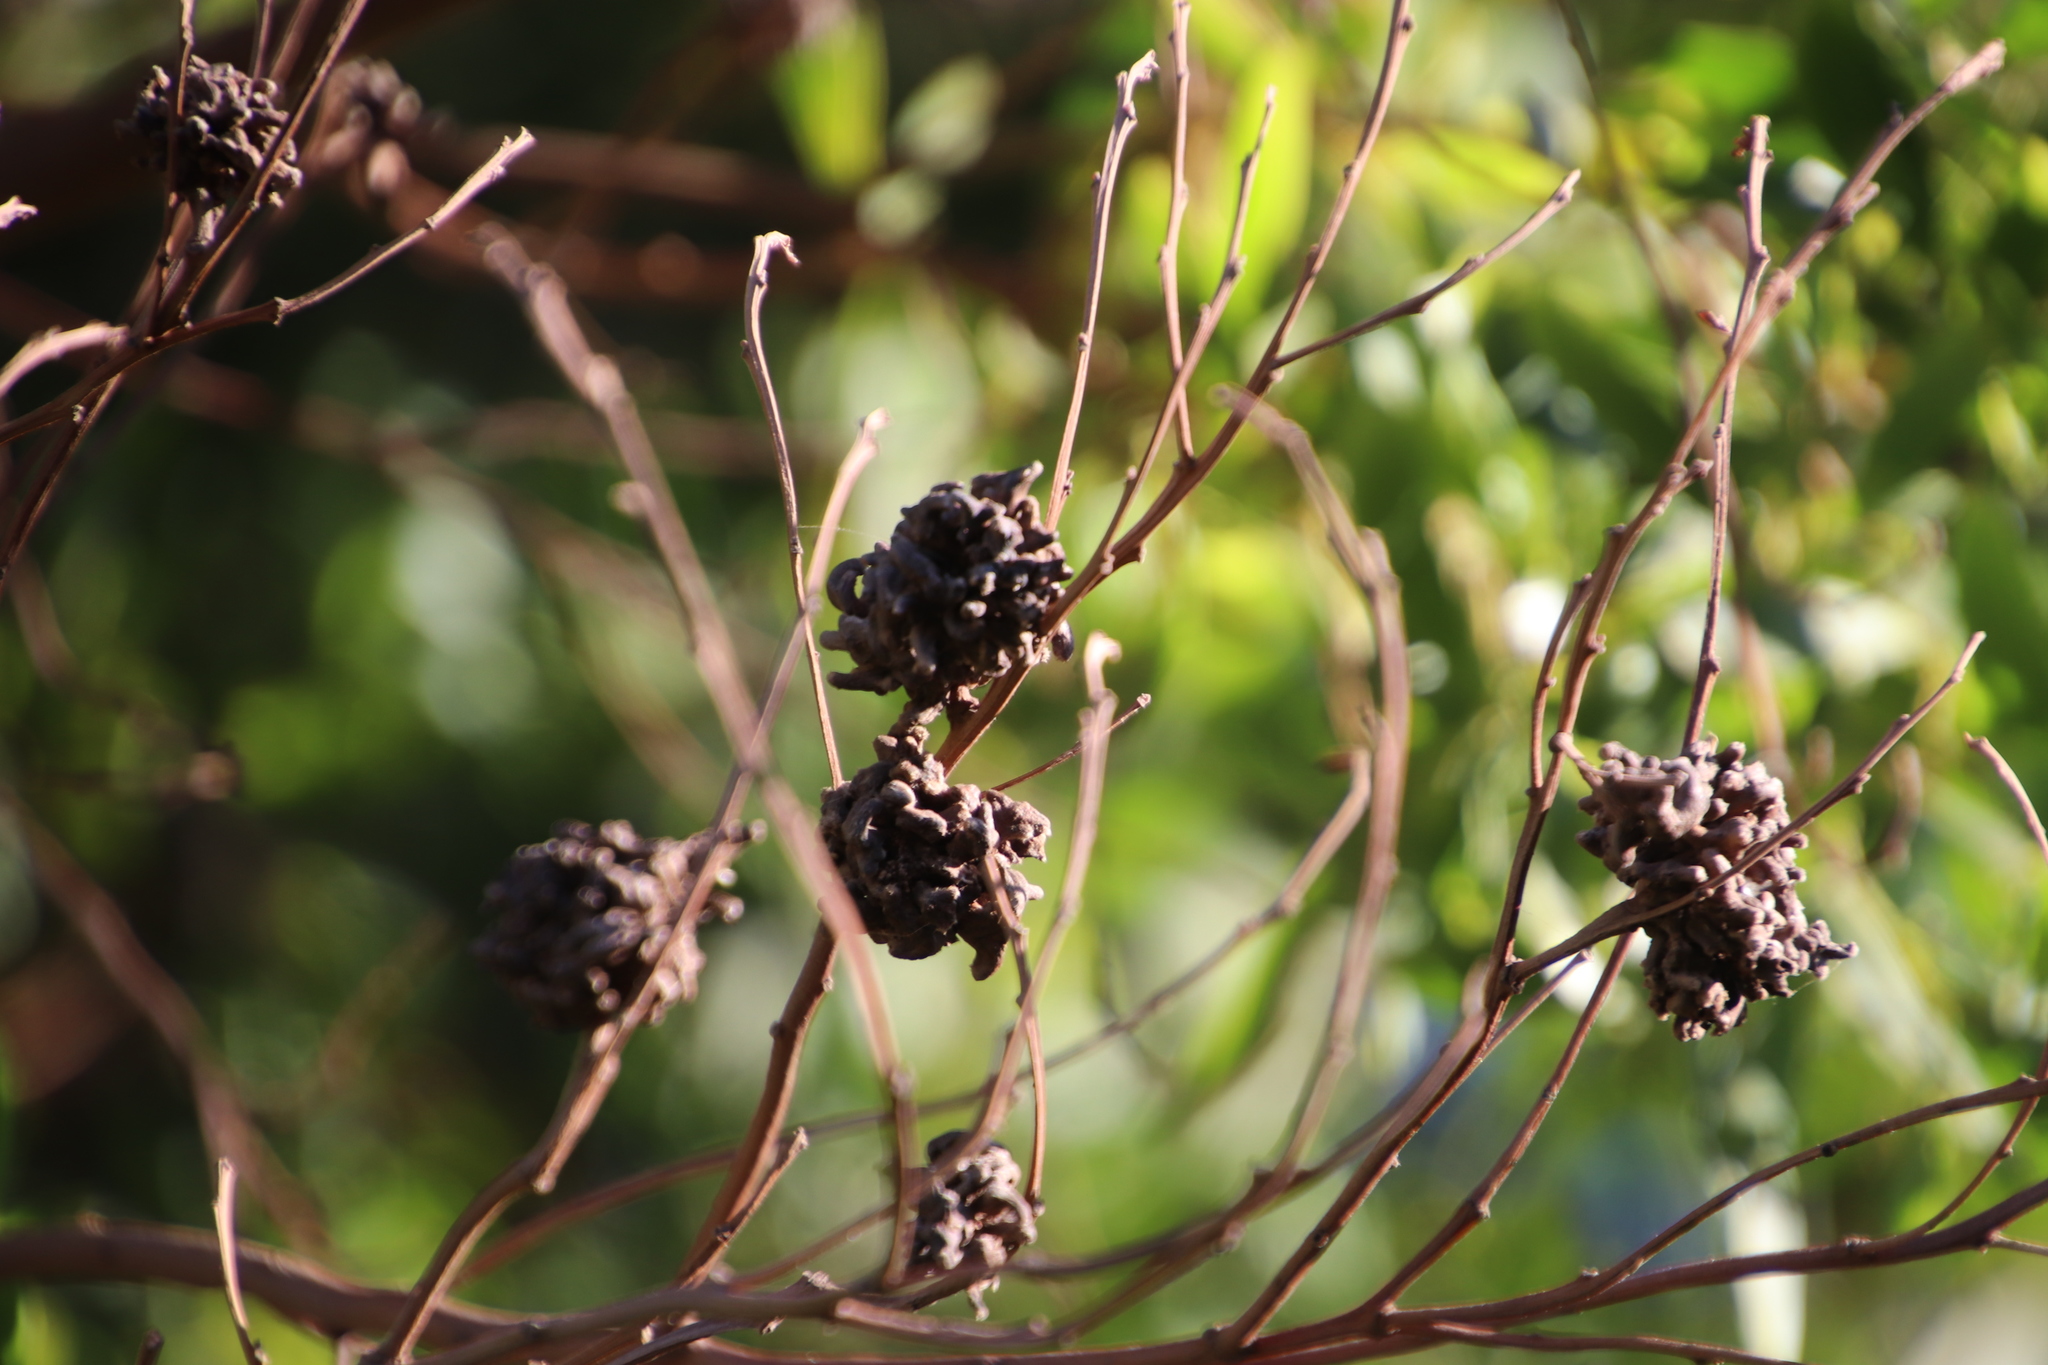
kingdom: Animalia
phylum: Arthropoda
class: Insecta
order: Diptera
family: Cecidomyiidae
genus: Dasineura
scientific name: Dasineura dielsi
